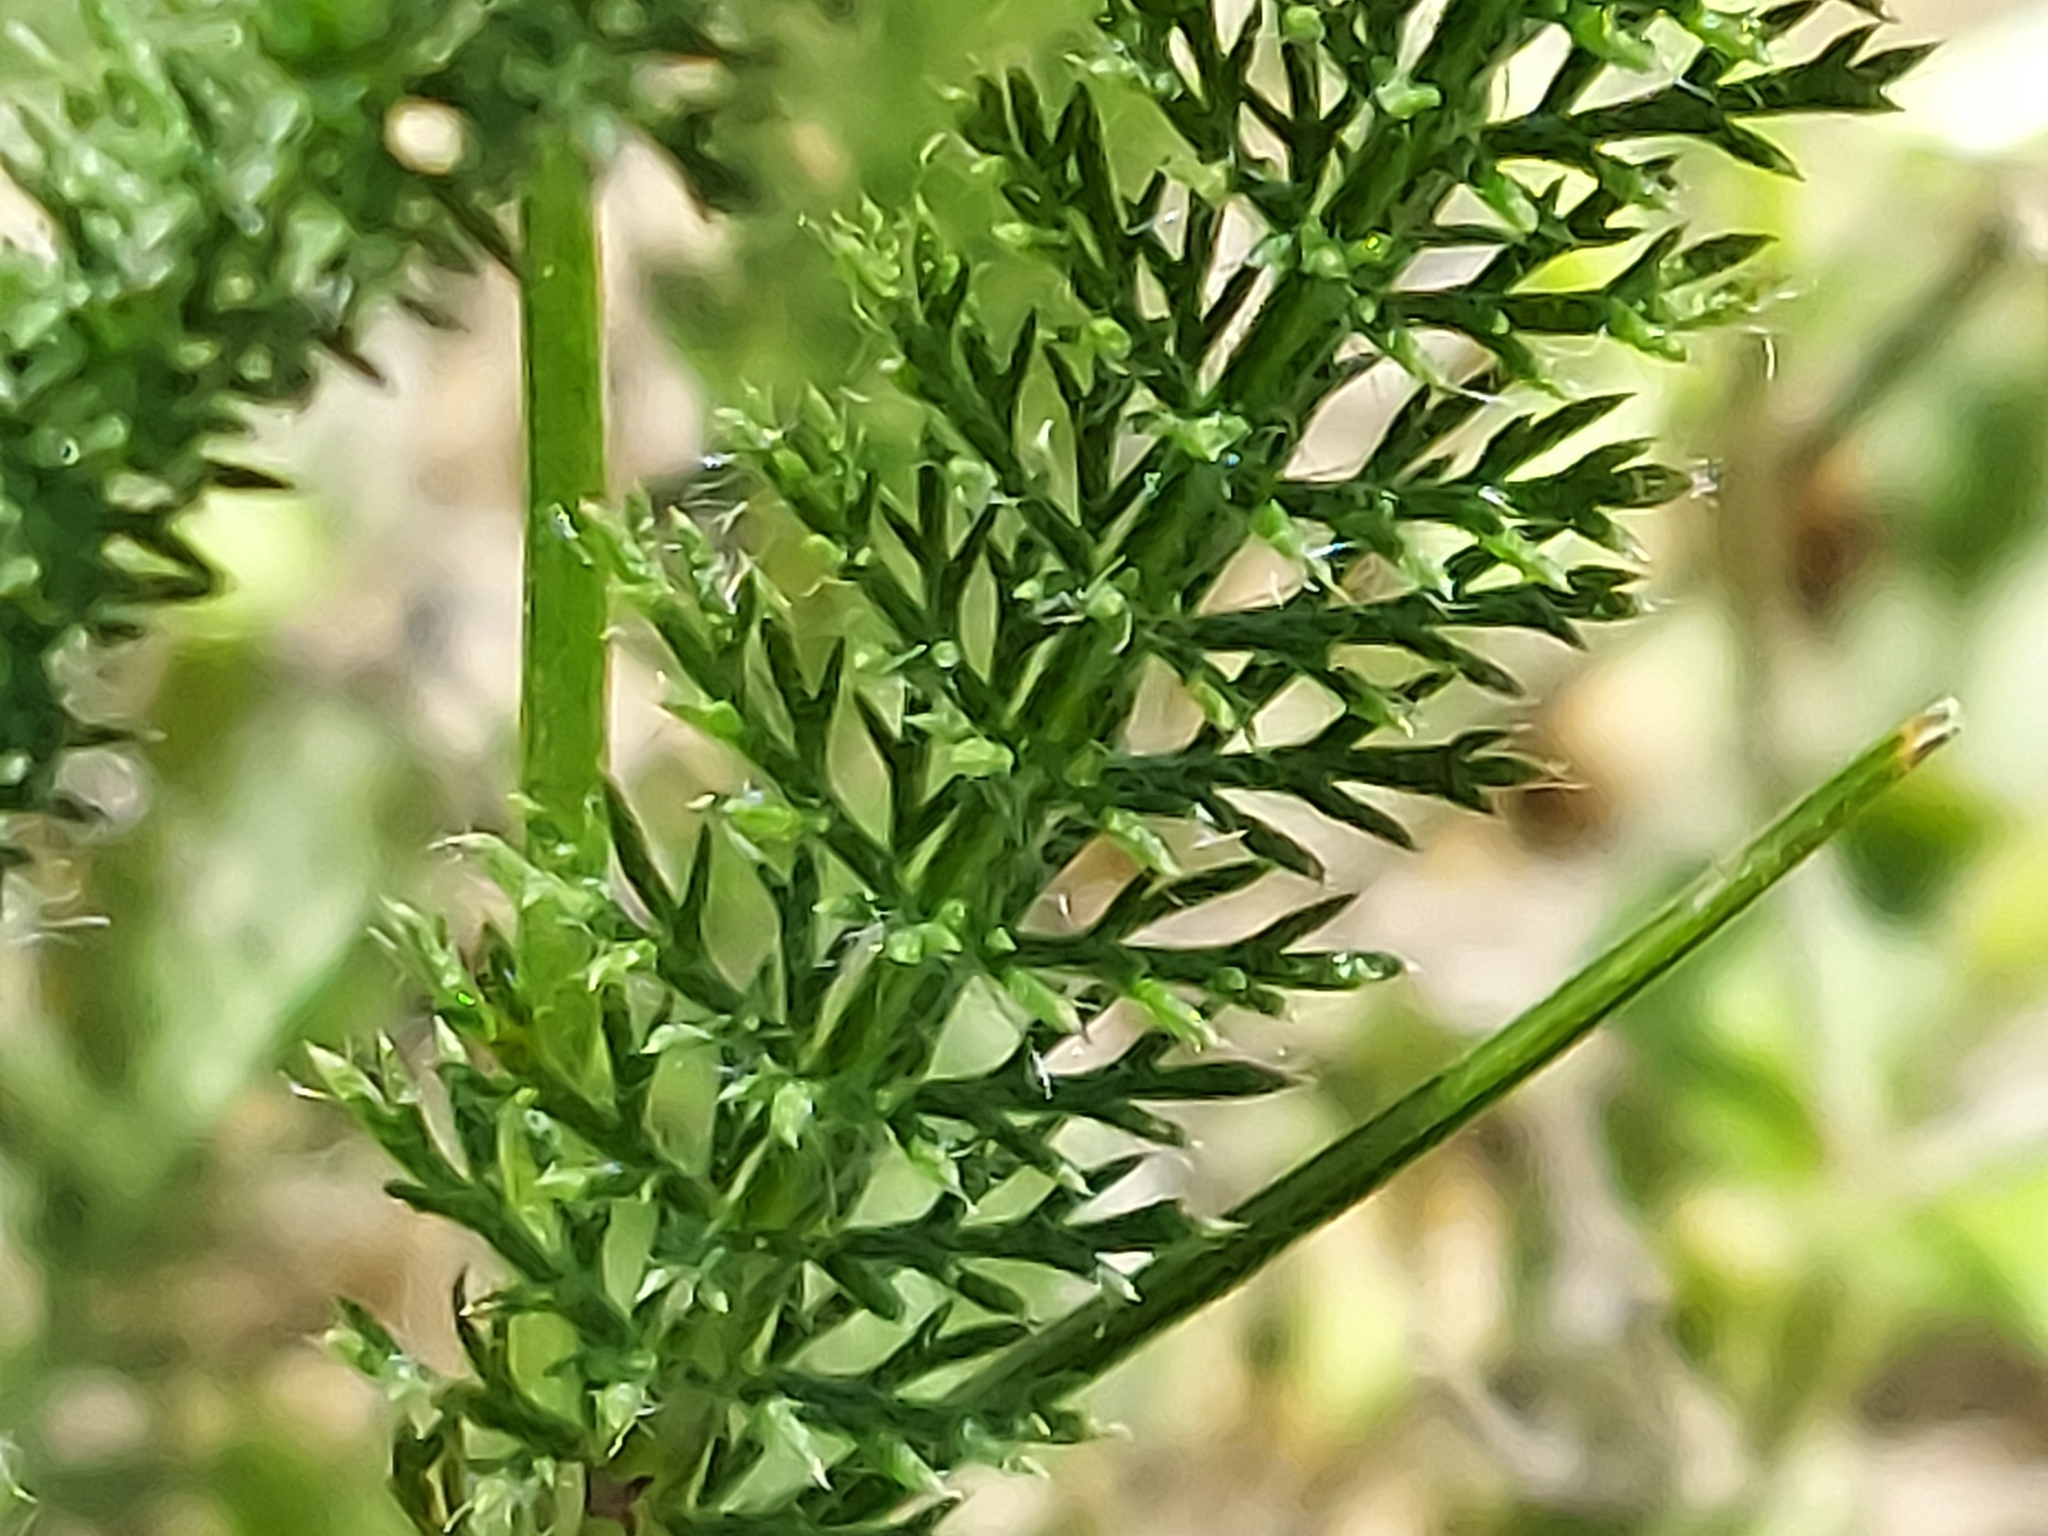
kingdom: Plantae
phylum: Tracheophyta
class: Magnoliopsida
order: Asterales
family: Asteraceae
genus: Achillea
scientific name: Achillea millefolium
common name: Yarrow
